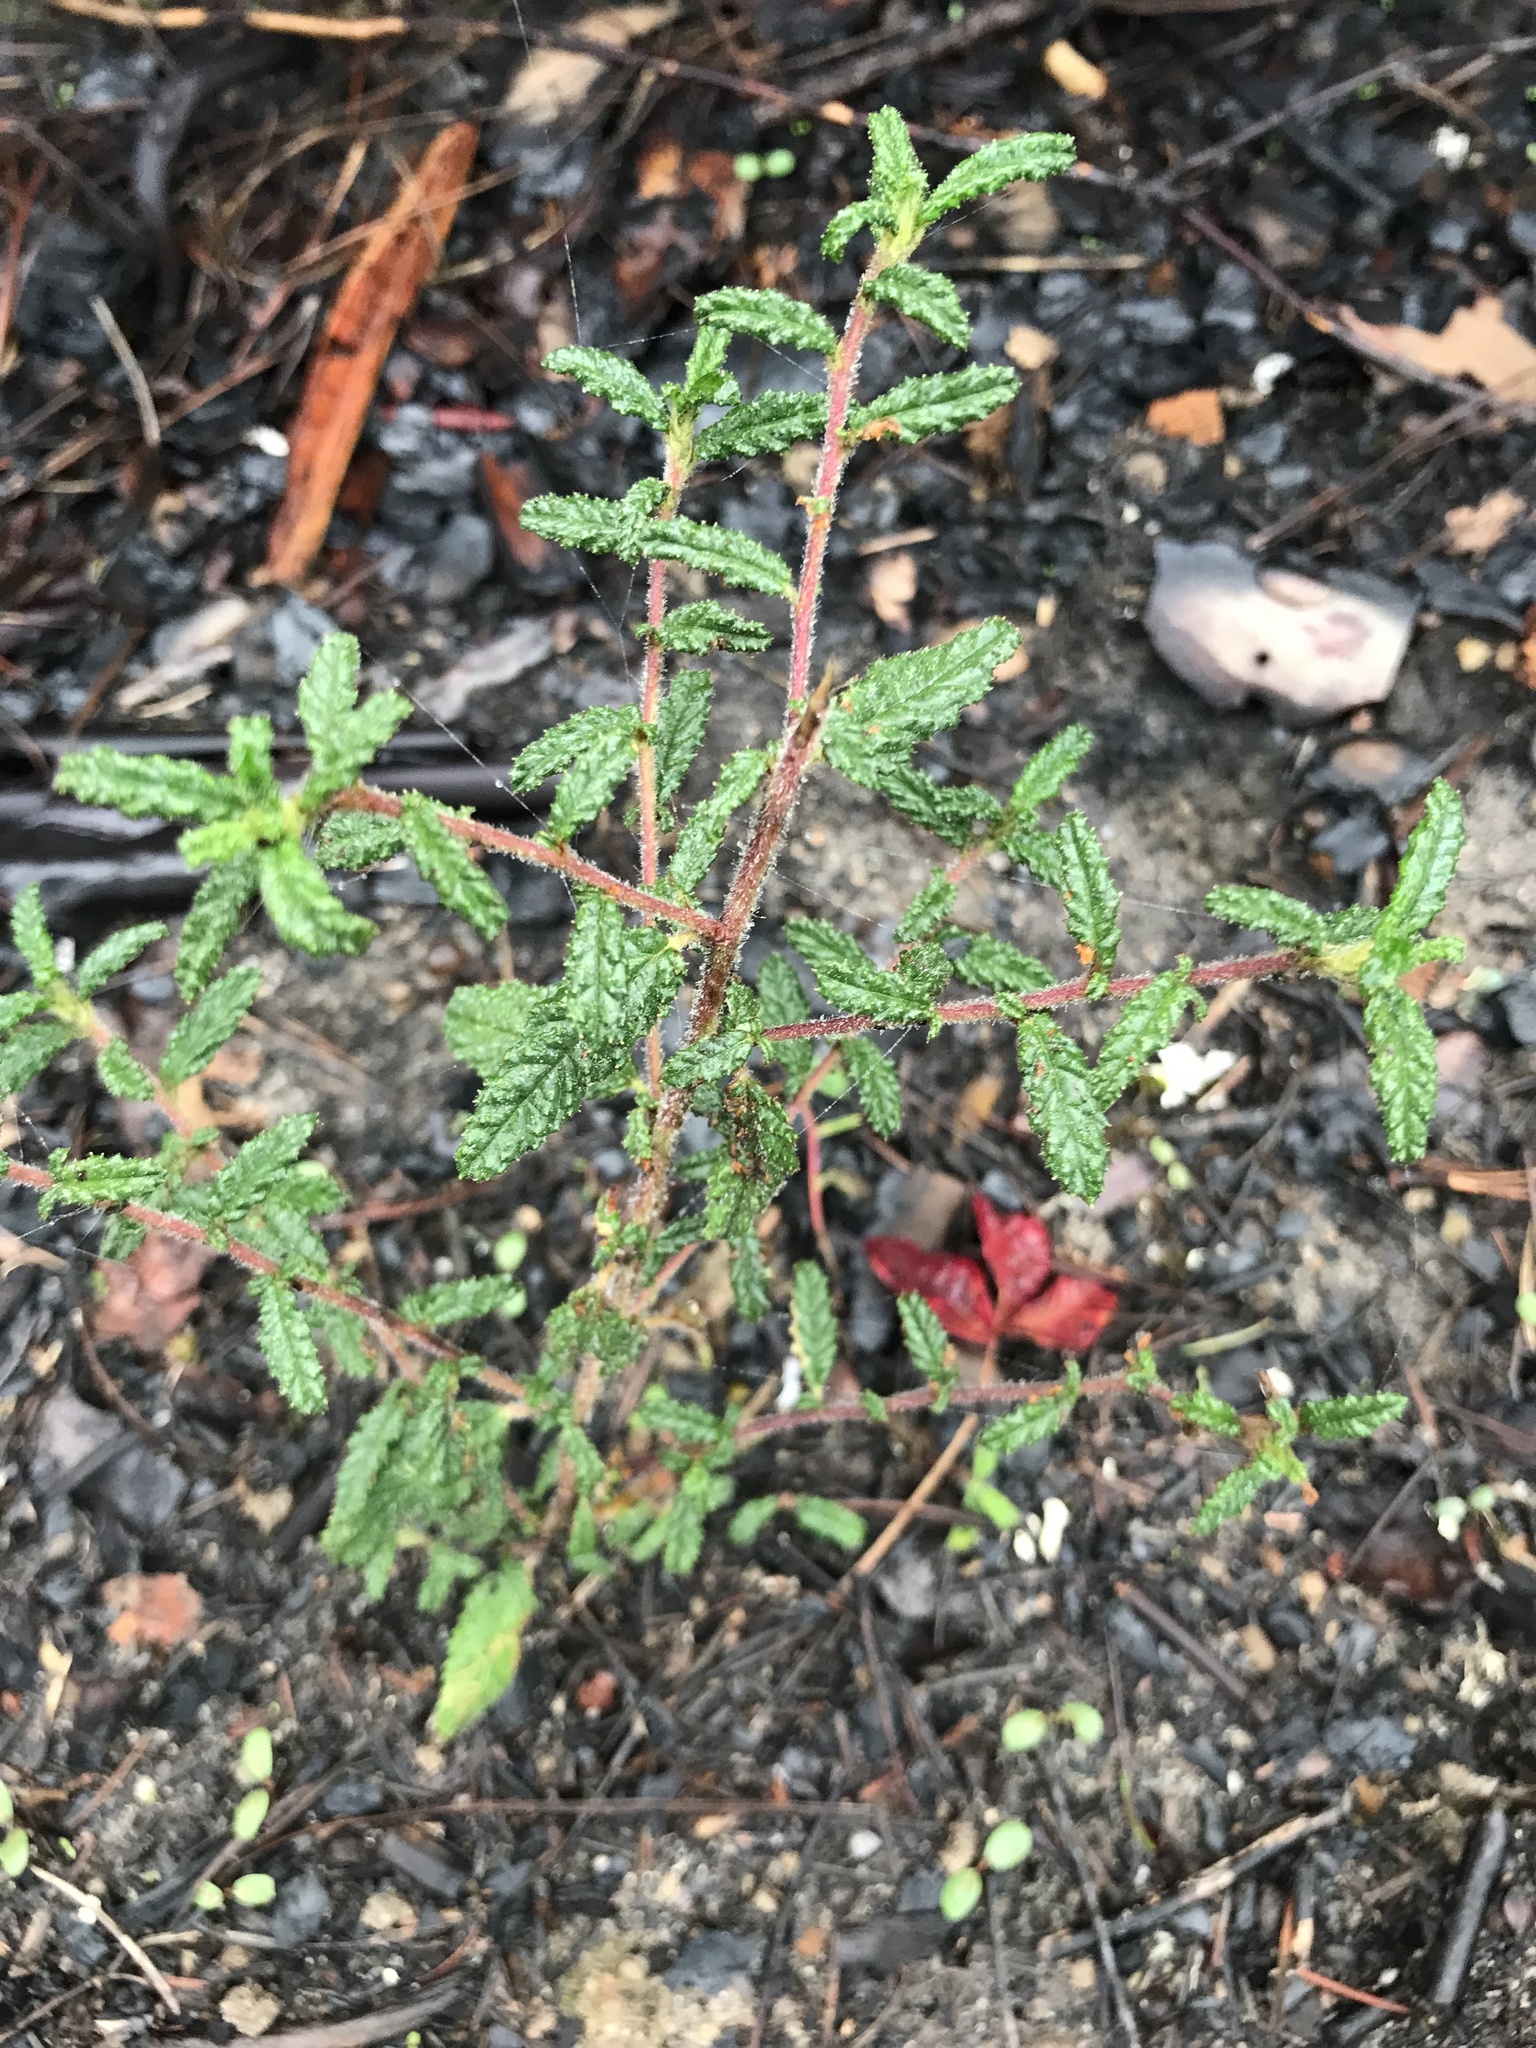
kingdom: Plantae
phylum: Tracheophyta
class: Magnoliopsida
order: Ericales
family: Ericaceae
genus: Arbutus
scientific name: Arbutus menziesii
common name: Pacific madrone
